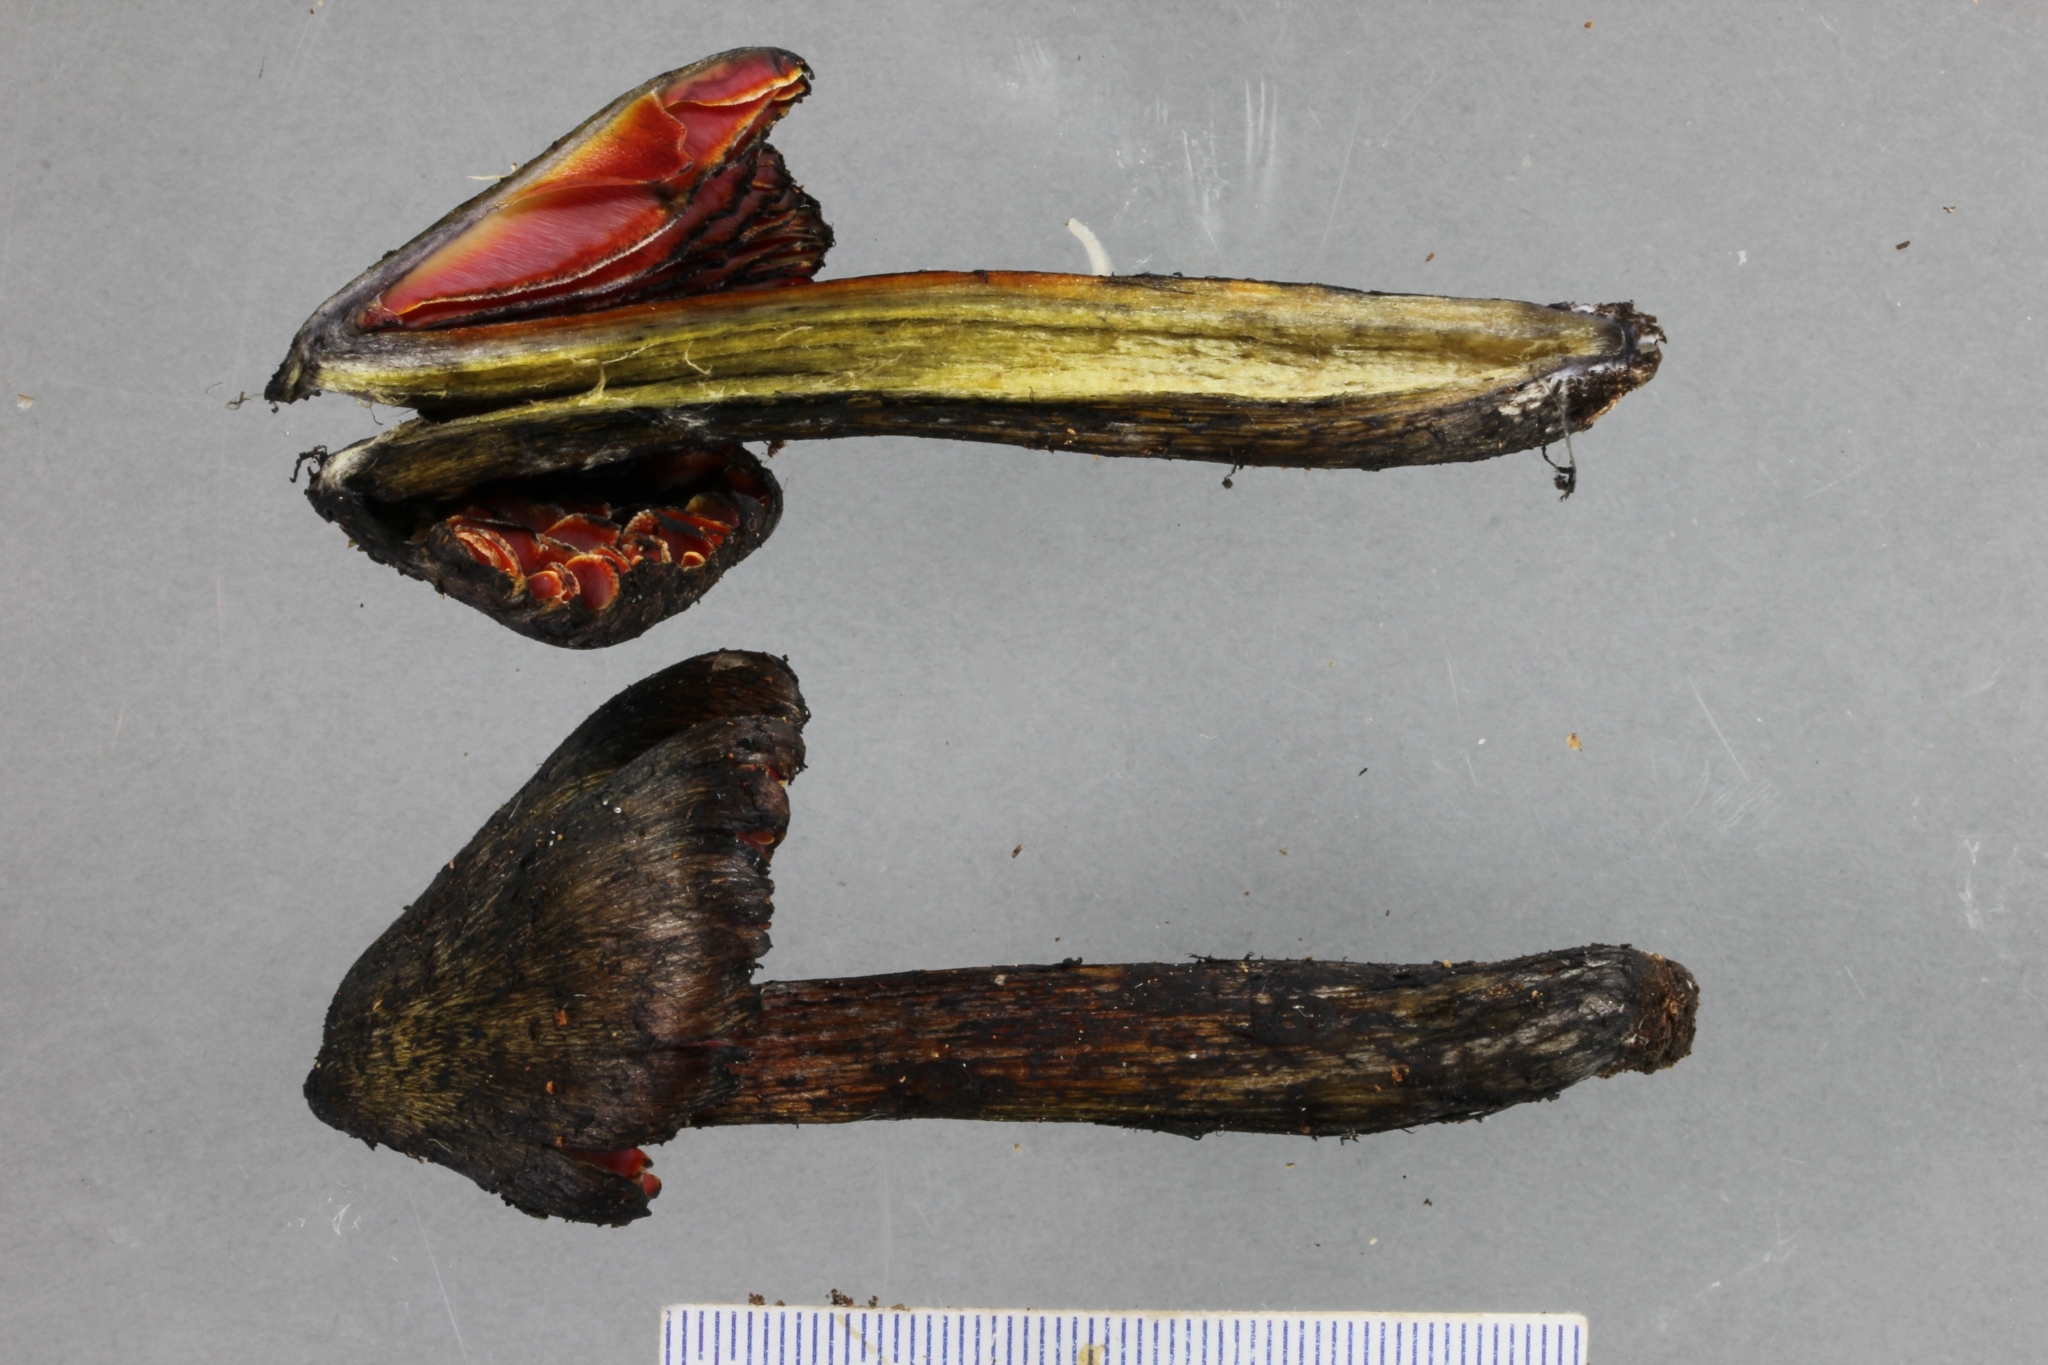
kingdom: Fungi
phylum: Basidiomycota
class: Agaricomycetes
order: Agaricales
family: Hygrophoraceae
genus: Hygrocybe
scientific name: Hygrocybe astatogala
